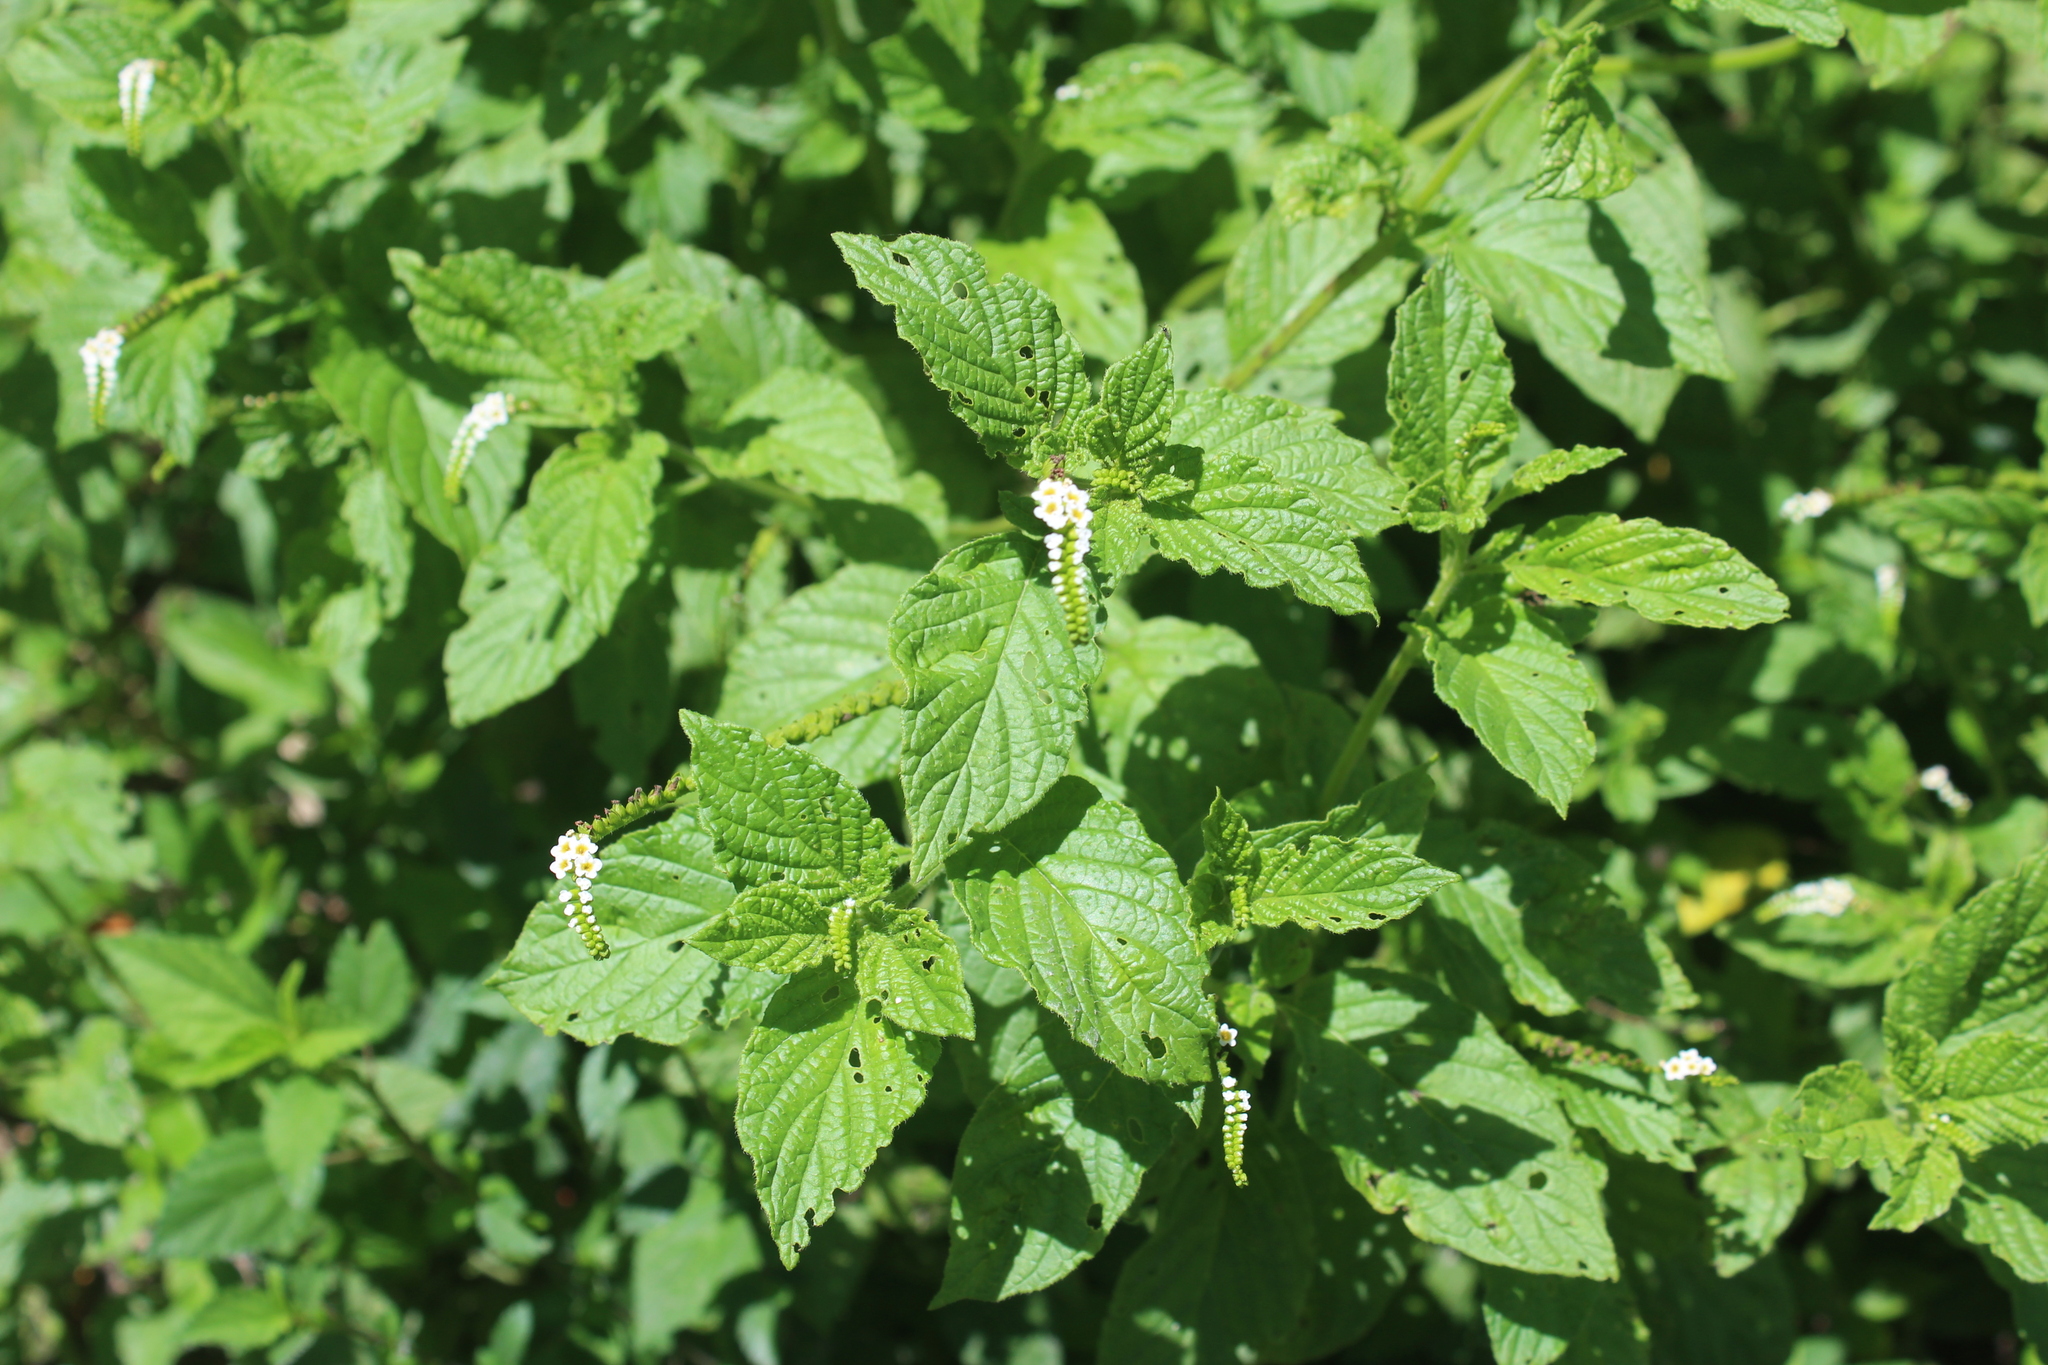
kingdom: Plantae
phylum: Tracheophyta
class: Magnoliopsida
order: Boraginales
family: Heliotropiaceae
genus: Heliotropium
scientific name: Heliotropium angiospermum
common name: Eye bright
